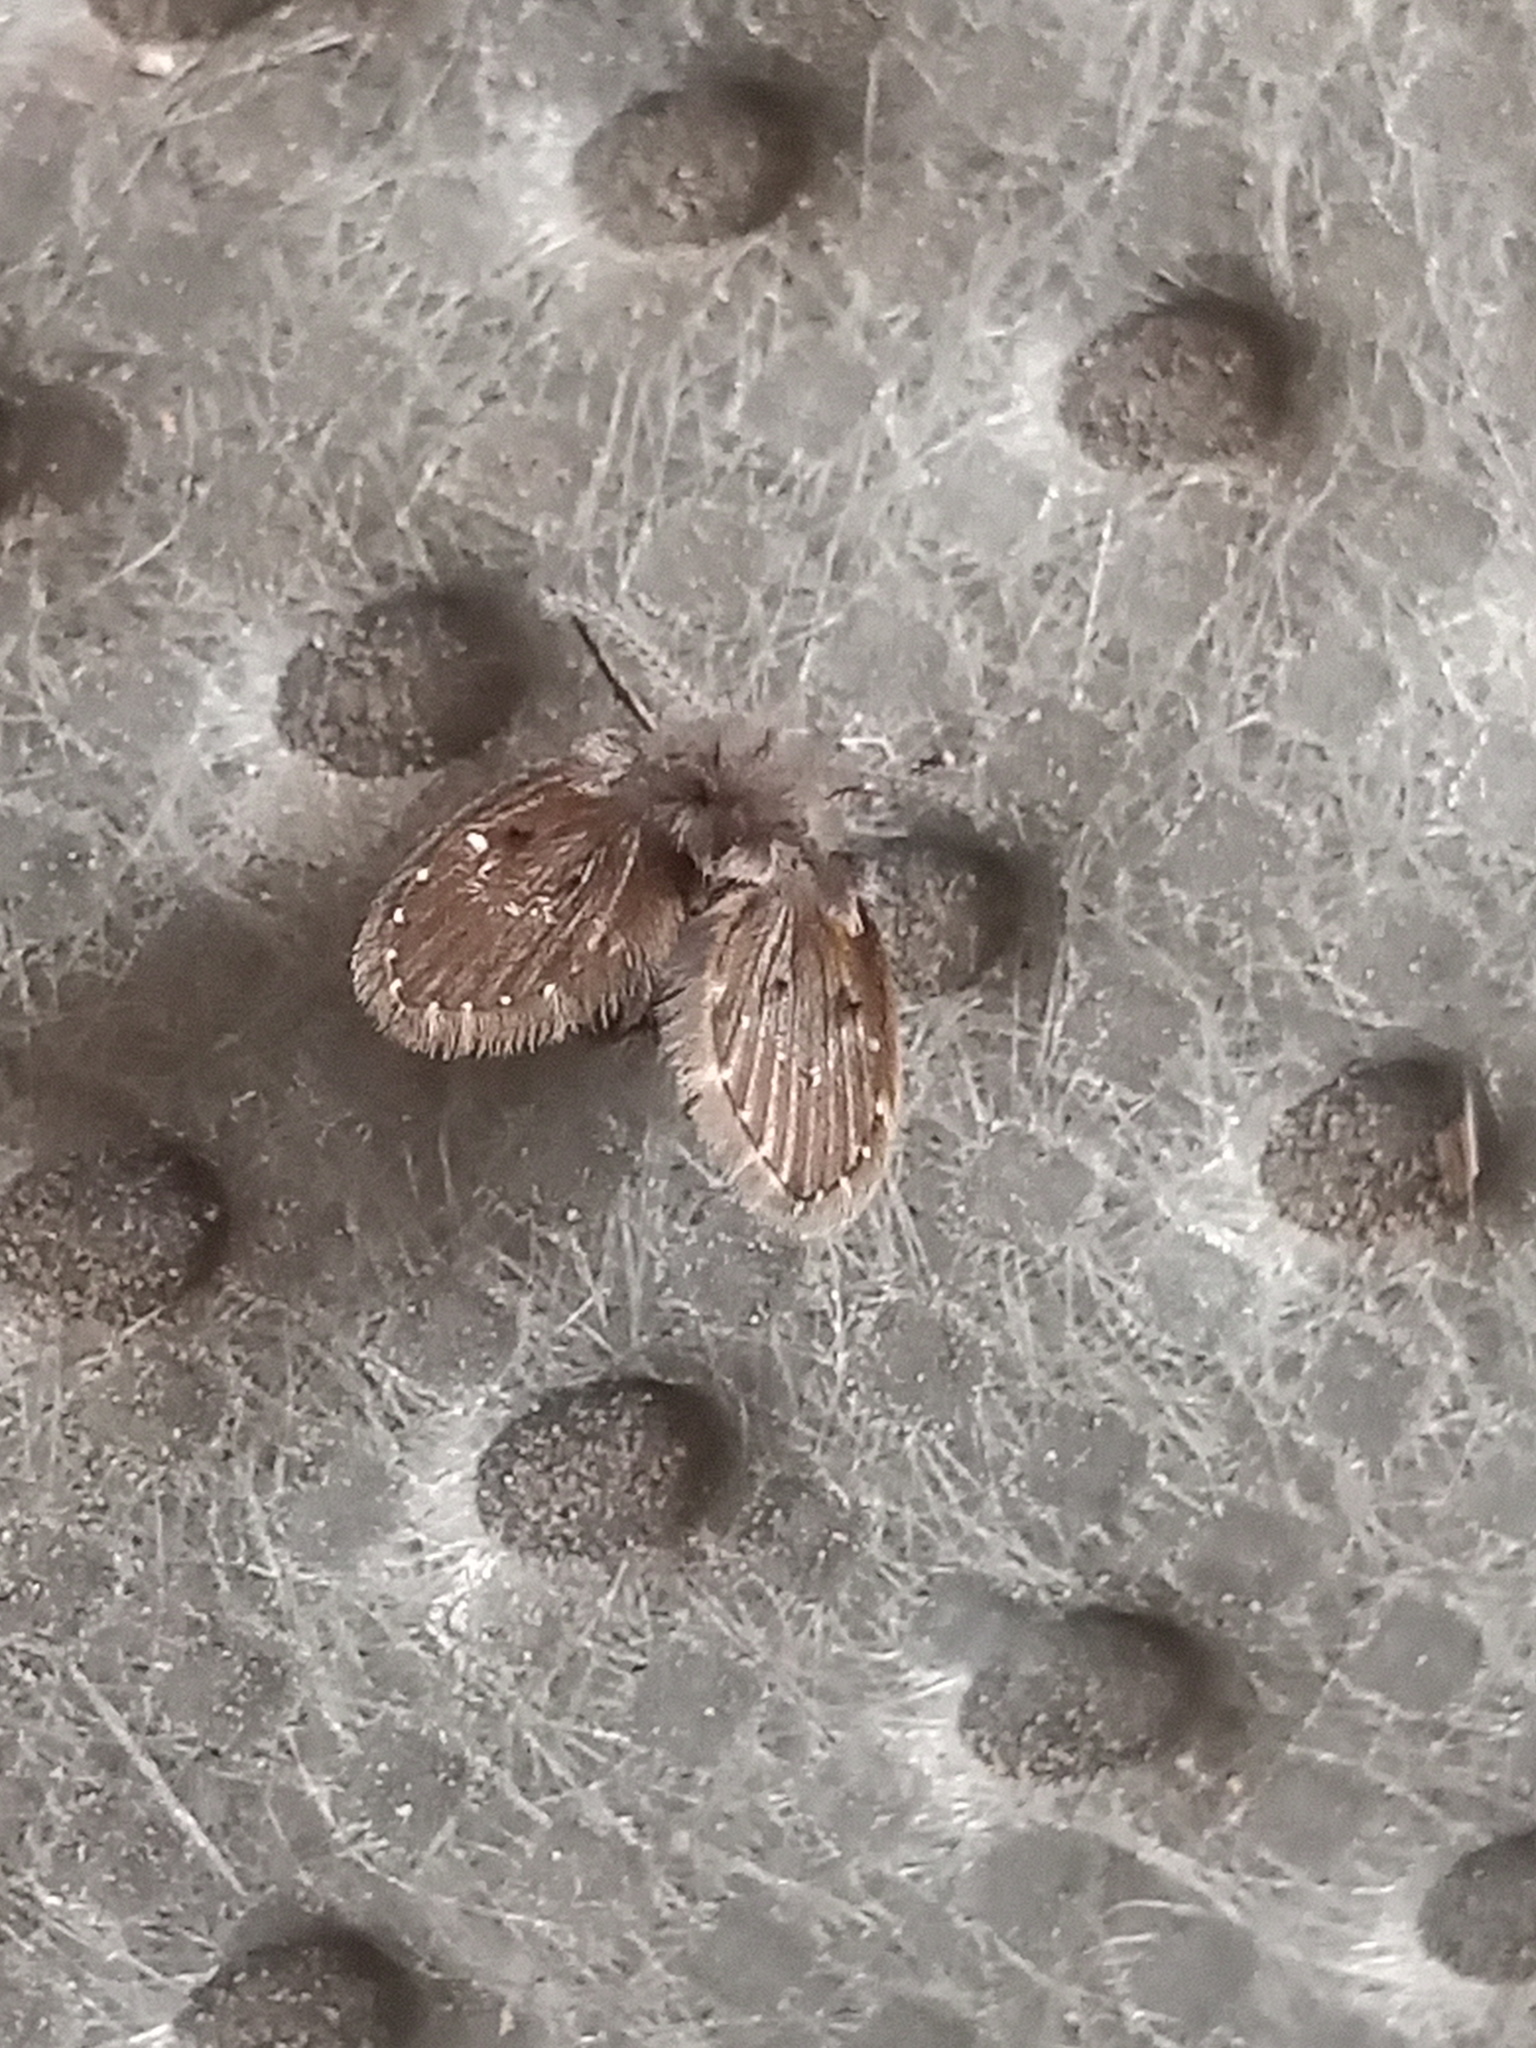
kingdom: Animalia
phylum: Arthropoda
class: Insecta
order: Diptera
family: Psychodidae
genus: Clogmia
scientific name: Clogmia albipunctatus
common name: White-spotted moth fly
